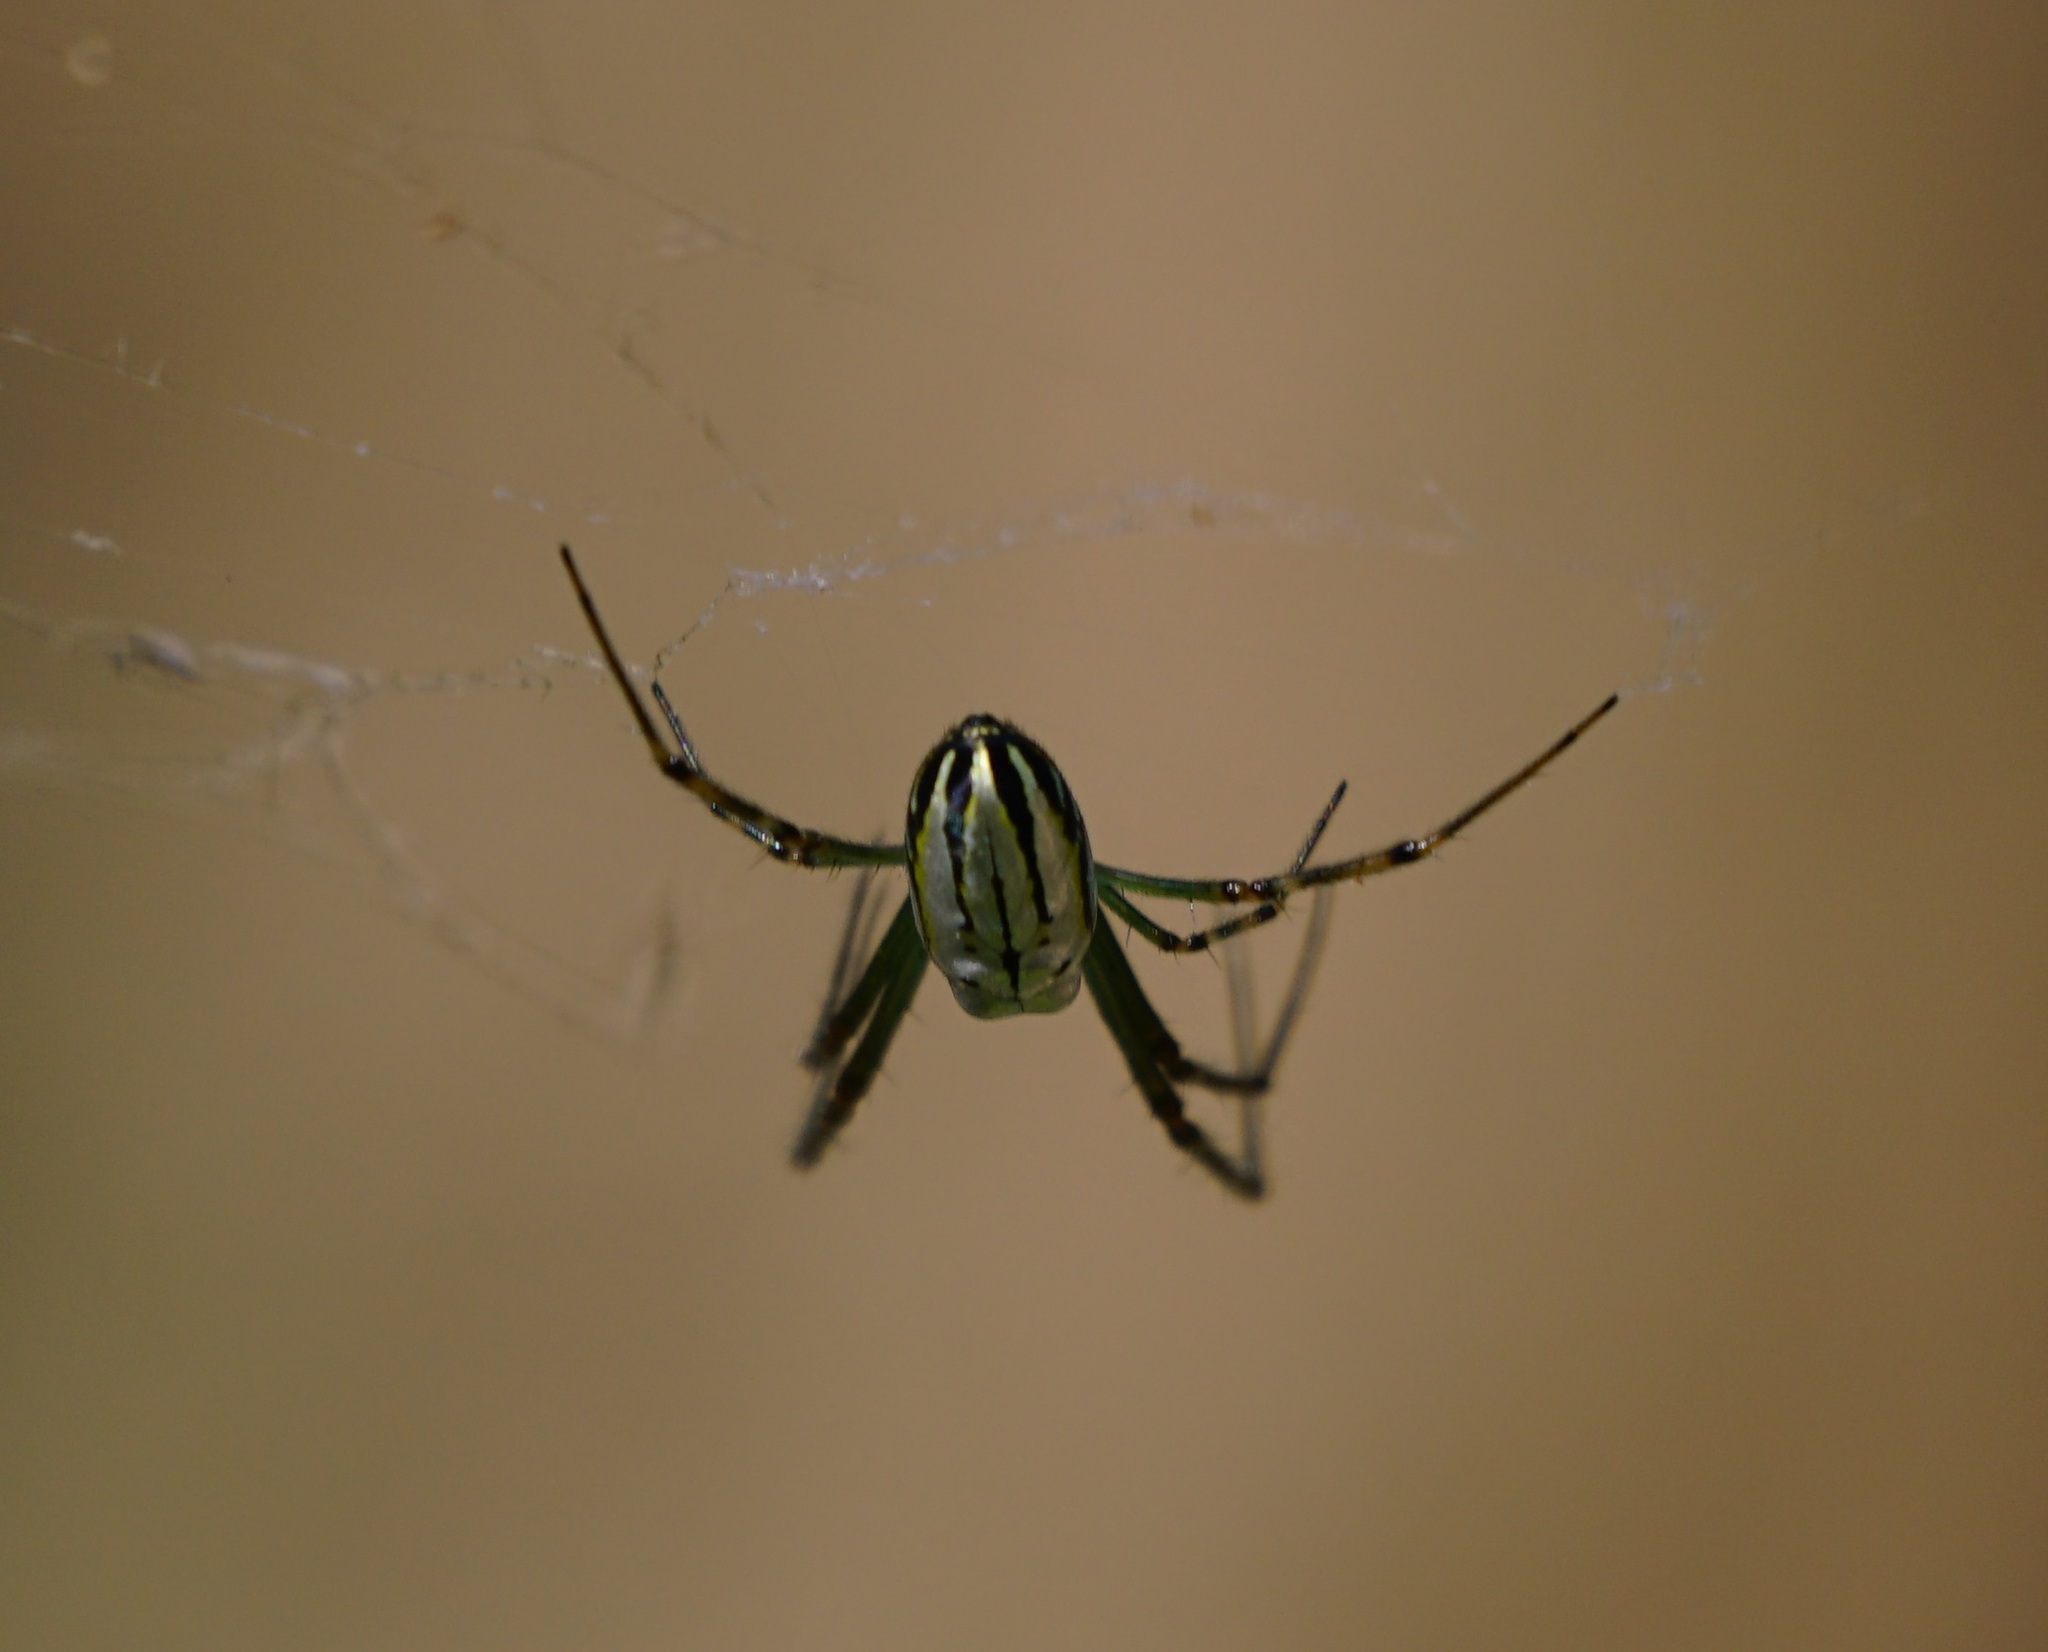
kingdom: Animalia
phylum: Arthropoda
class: Arachnida
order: Araneae
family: Tetragnathidae
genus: Leucauge
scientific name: Leucauge dromedaria
